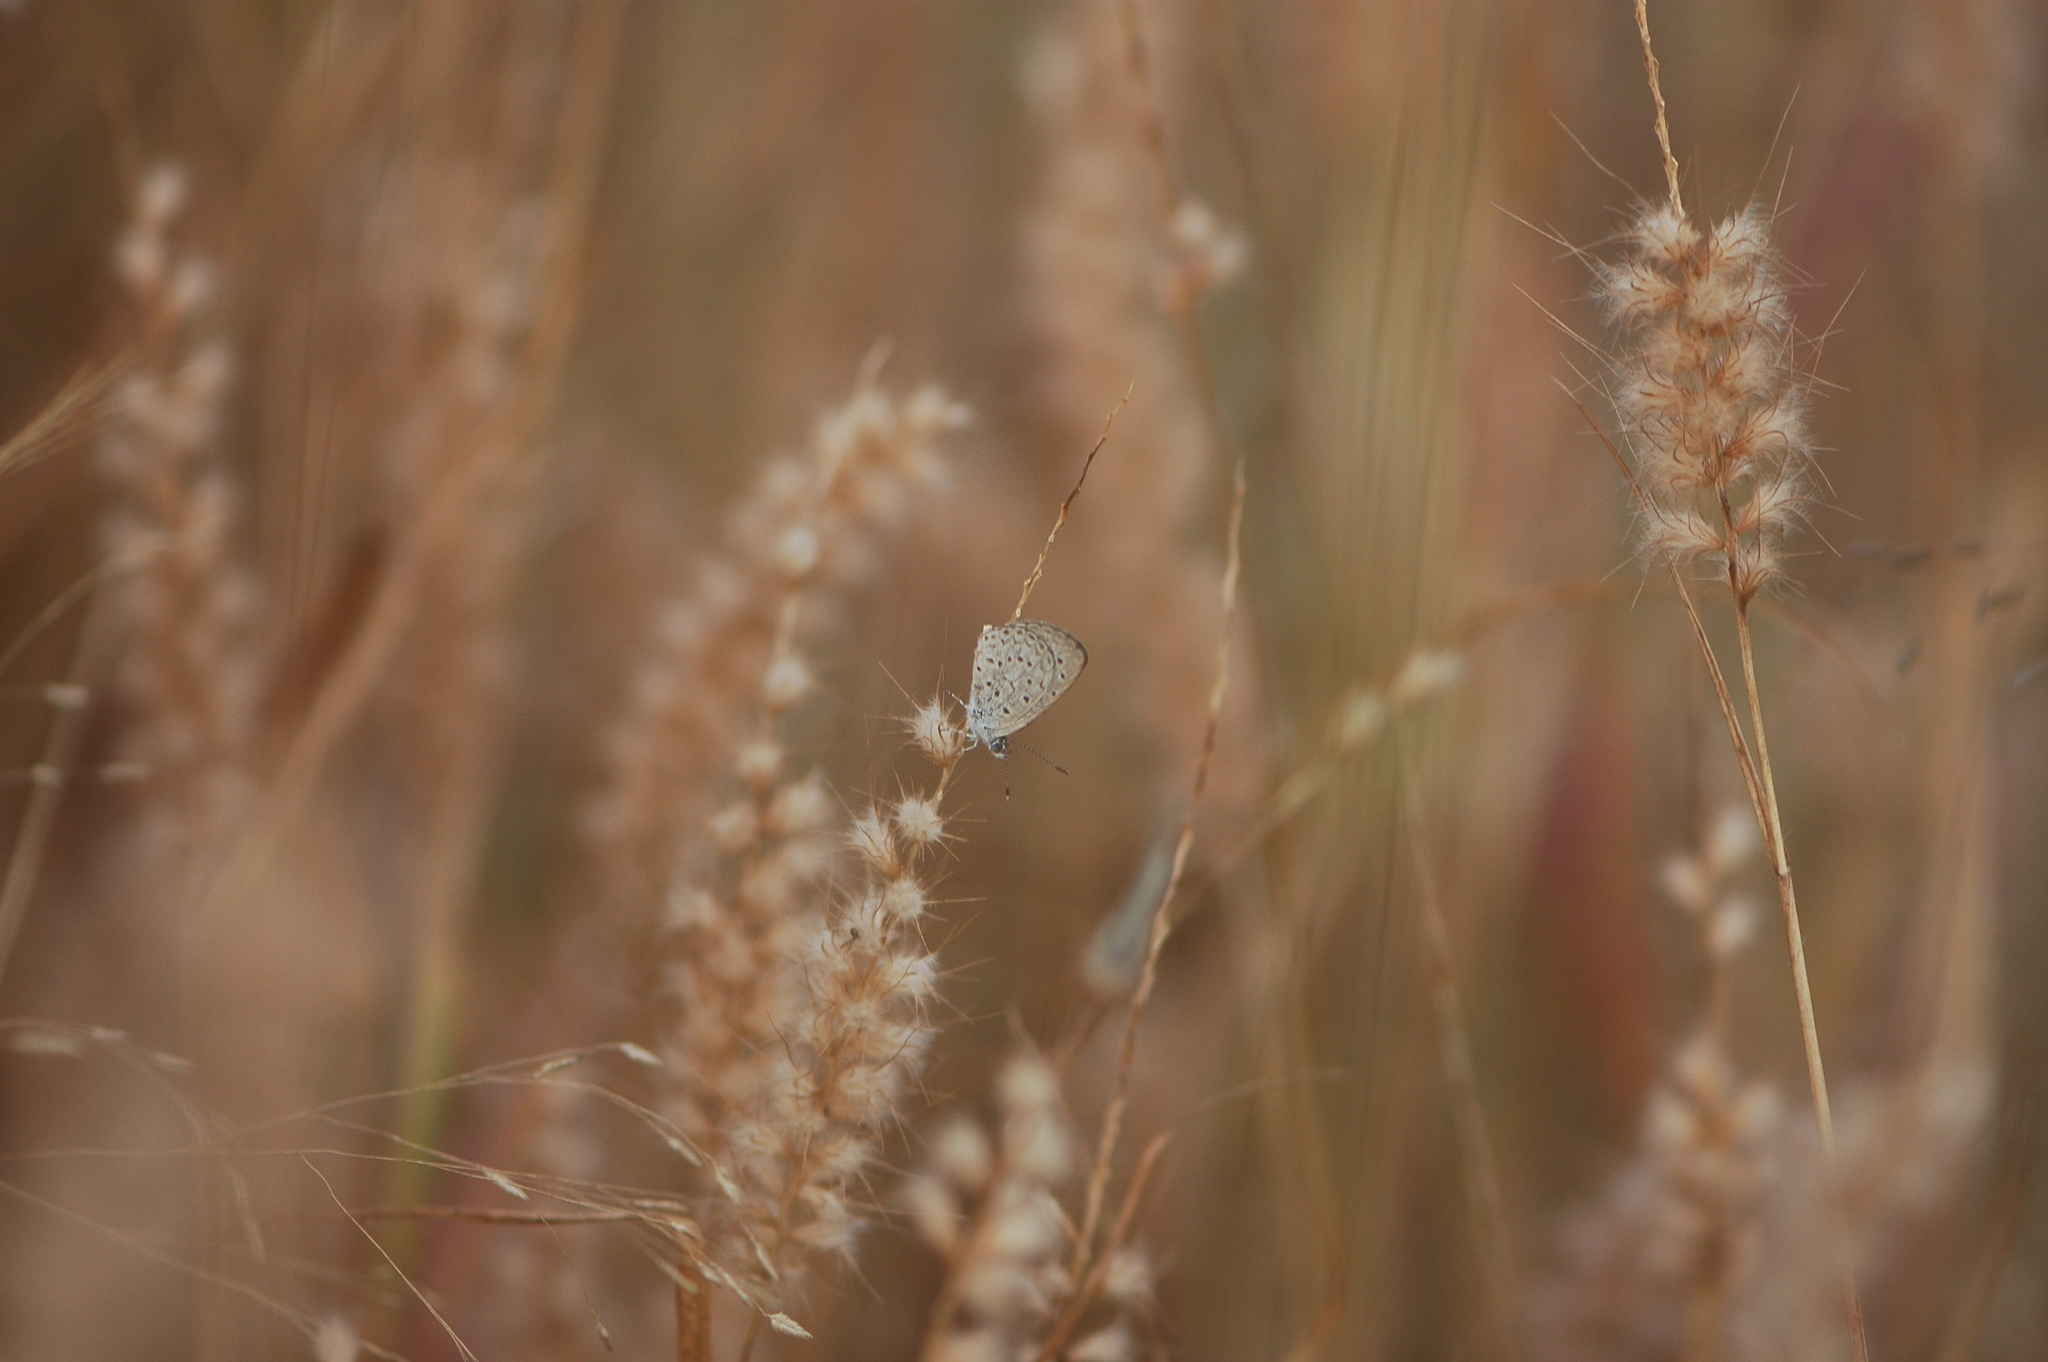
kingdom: Animalia
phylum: Arthropoda
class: Insecta
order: Lepidoptera
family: Lycaenidae
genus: Zizeeria
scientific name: Zizeeria knysna
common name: African grass blue
